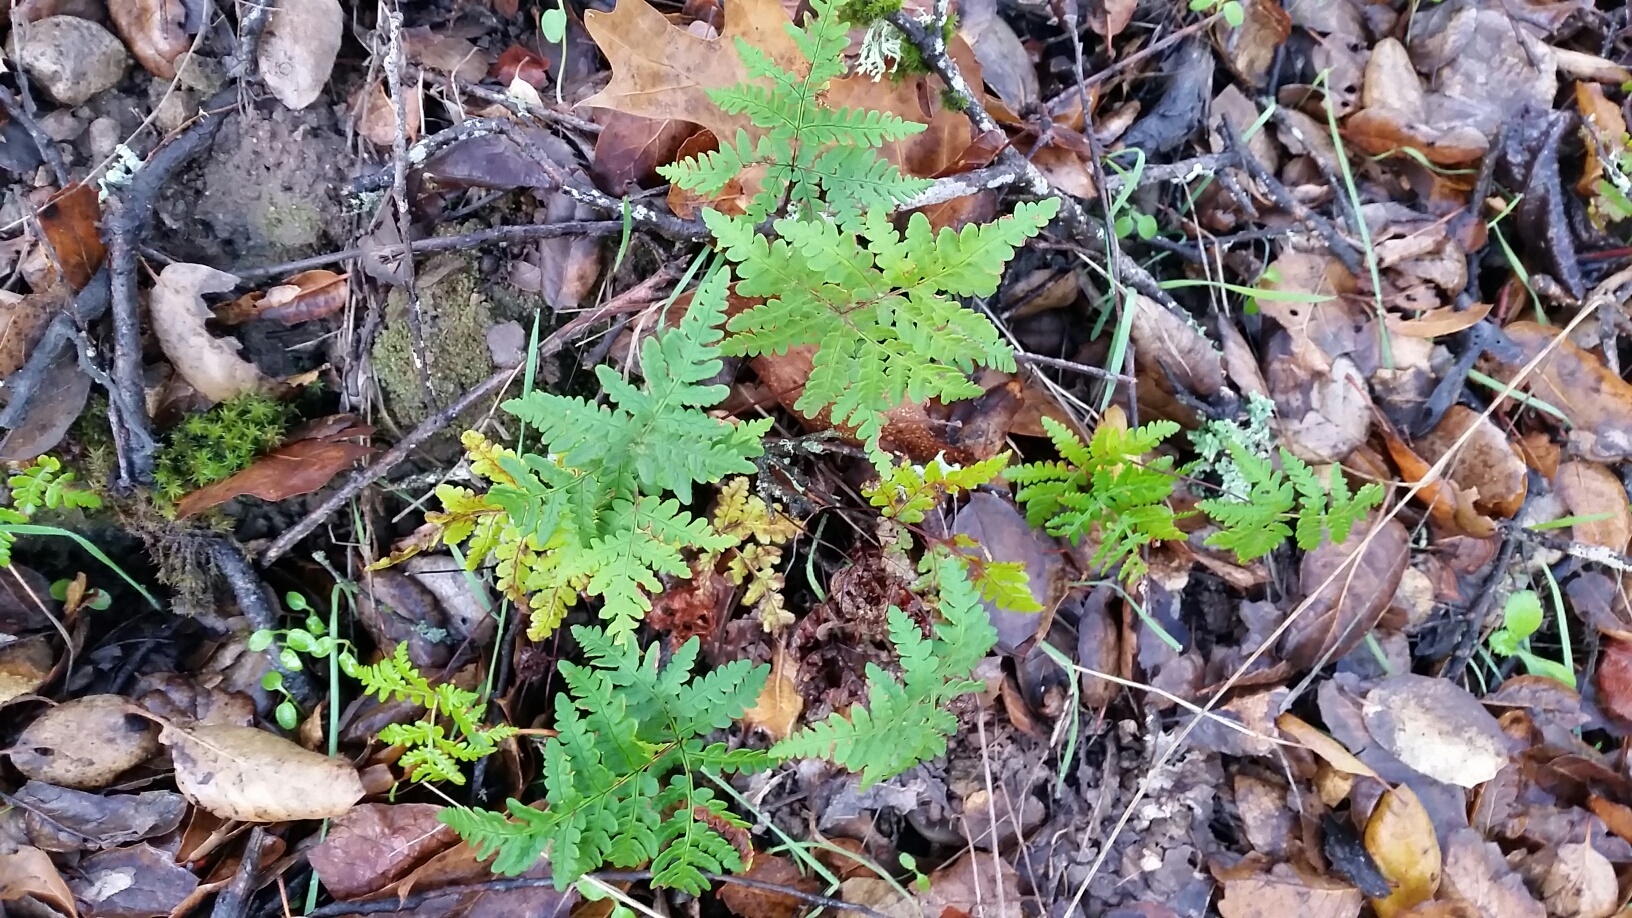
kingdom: Plantae
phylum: Tracheophyta
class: Polypodiopsida
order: Polypodiales
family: Pteridaceae
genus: Pentagramma
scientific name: Pentagramma triangularis
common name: Gold fern
